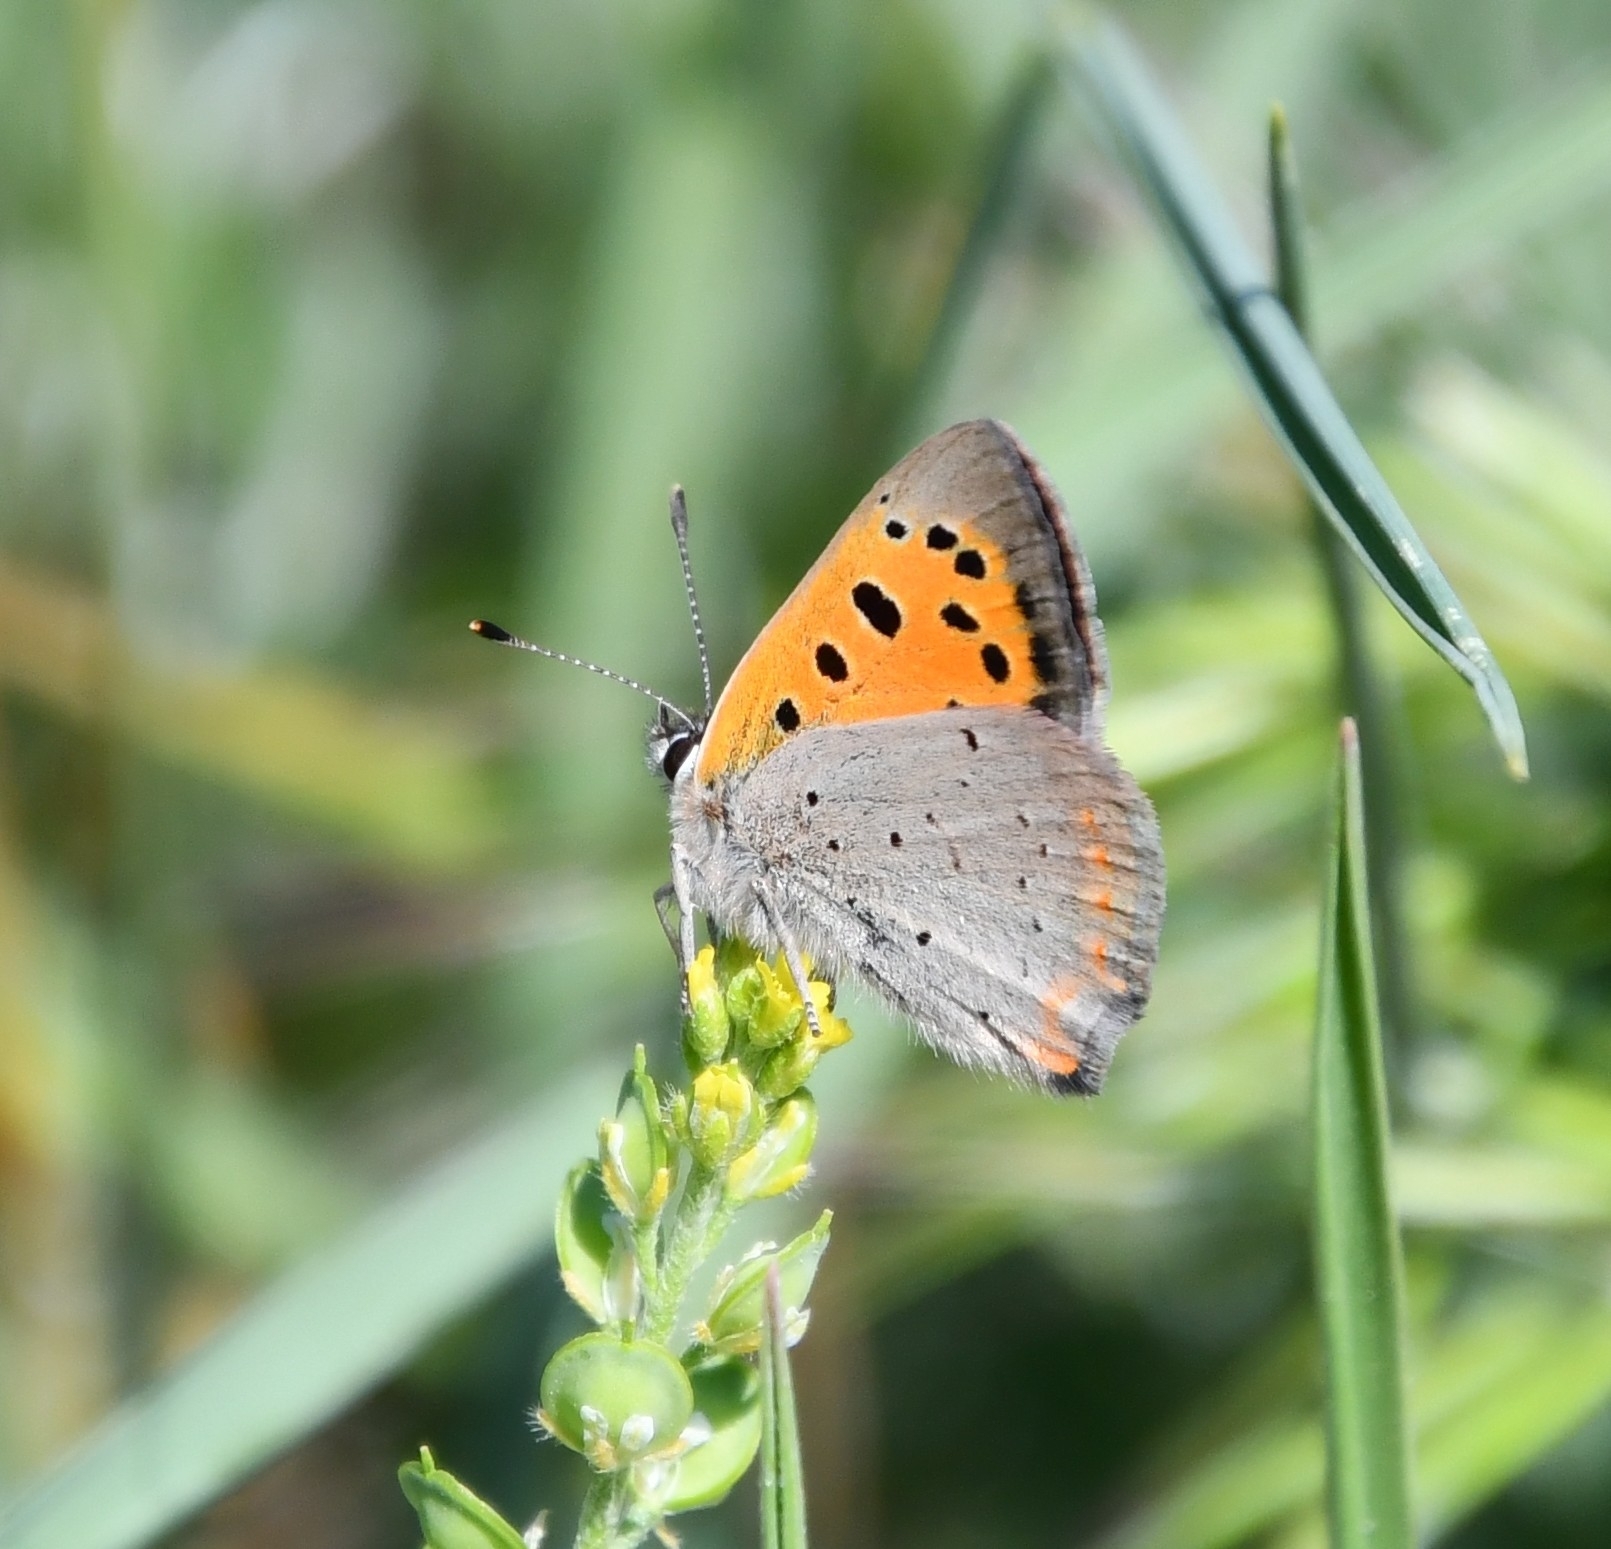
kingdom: Animalia
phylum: Arthropoda
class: Insecta
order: Lepidoptera
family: Lycaenidae
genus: Lycaena
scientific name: Lycaena phlaeas
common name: Small copper
